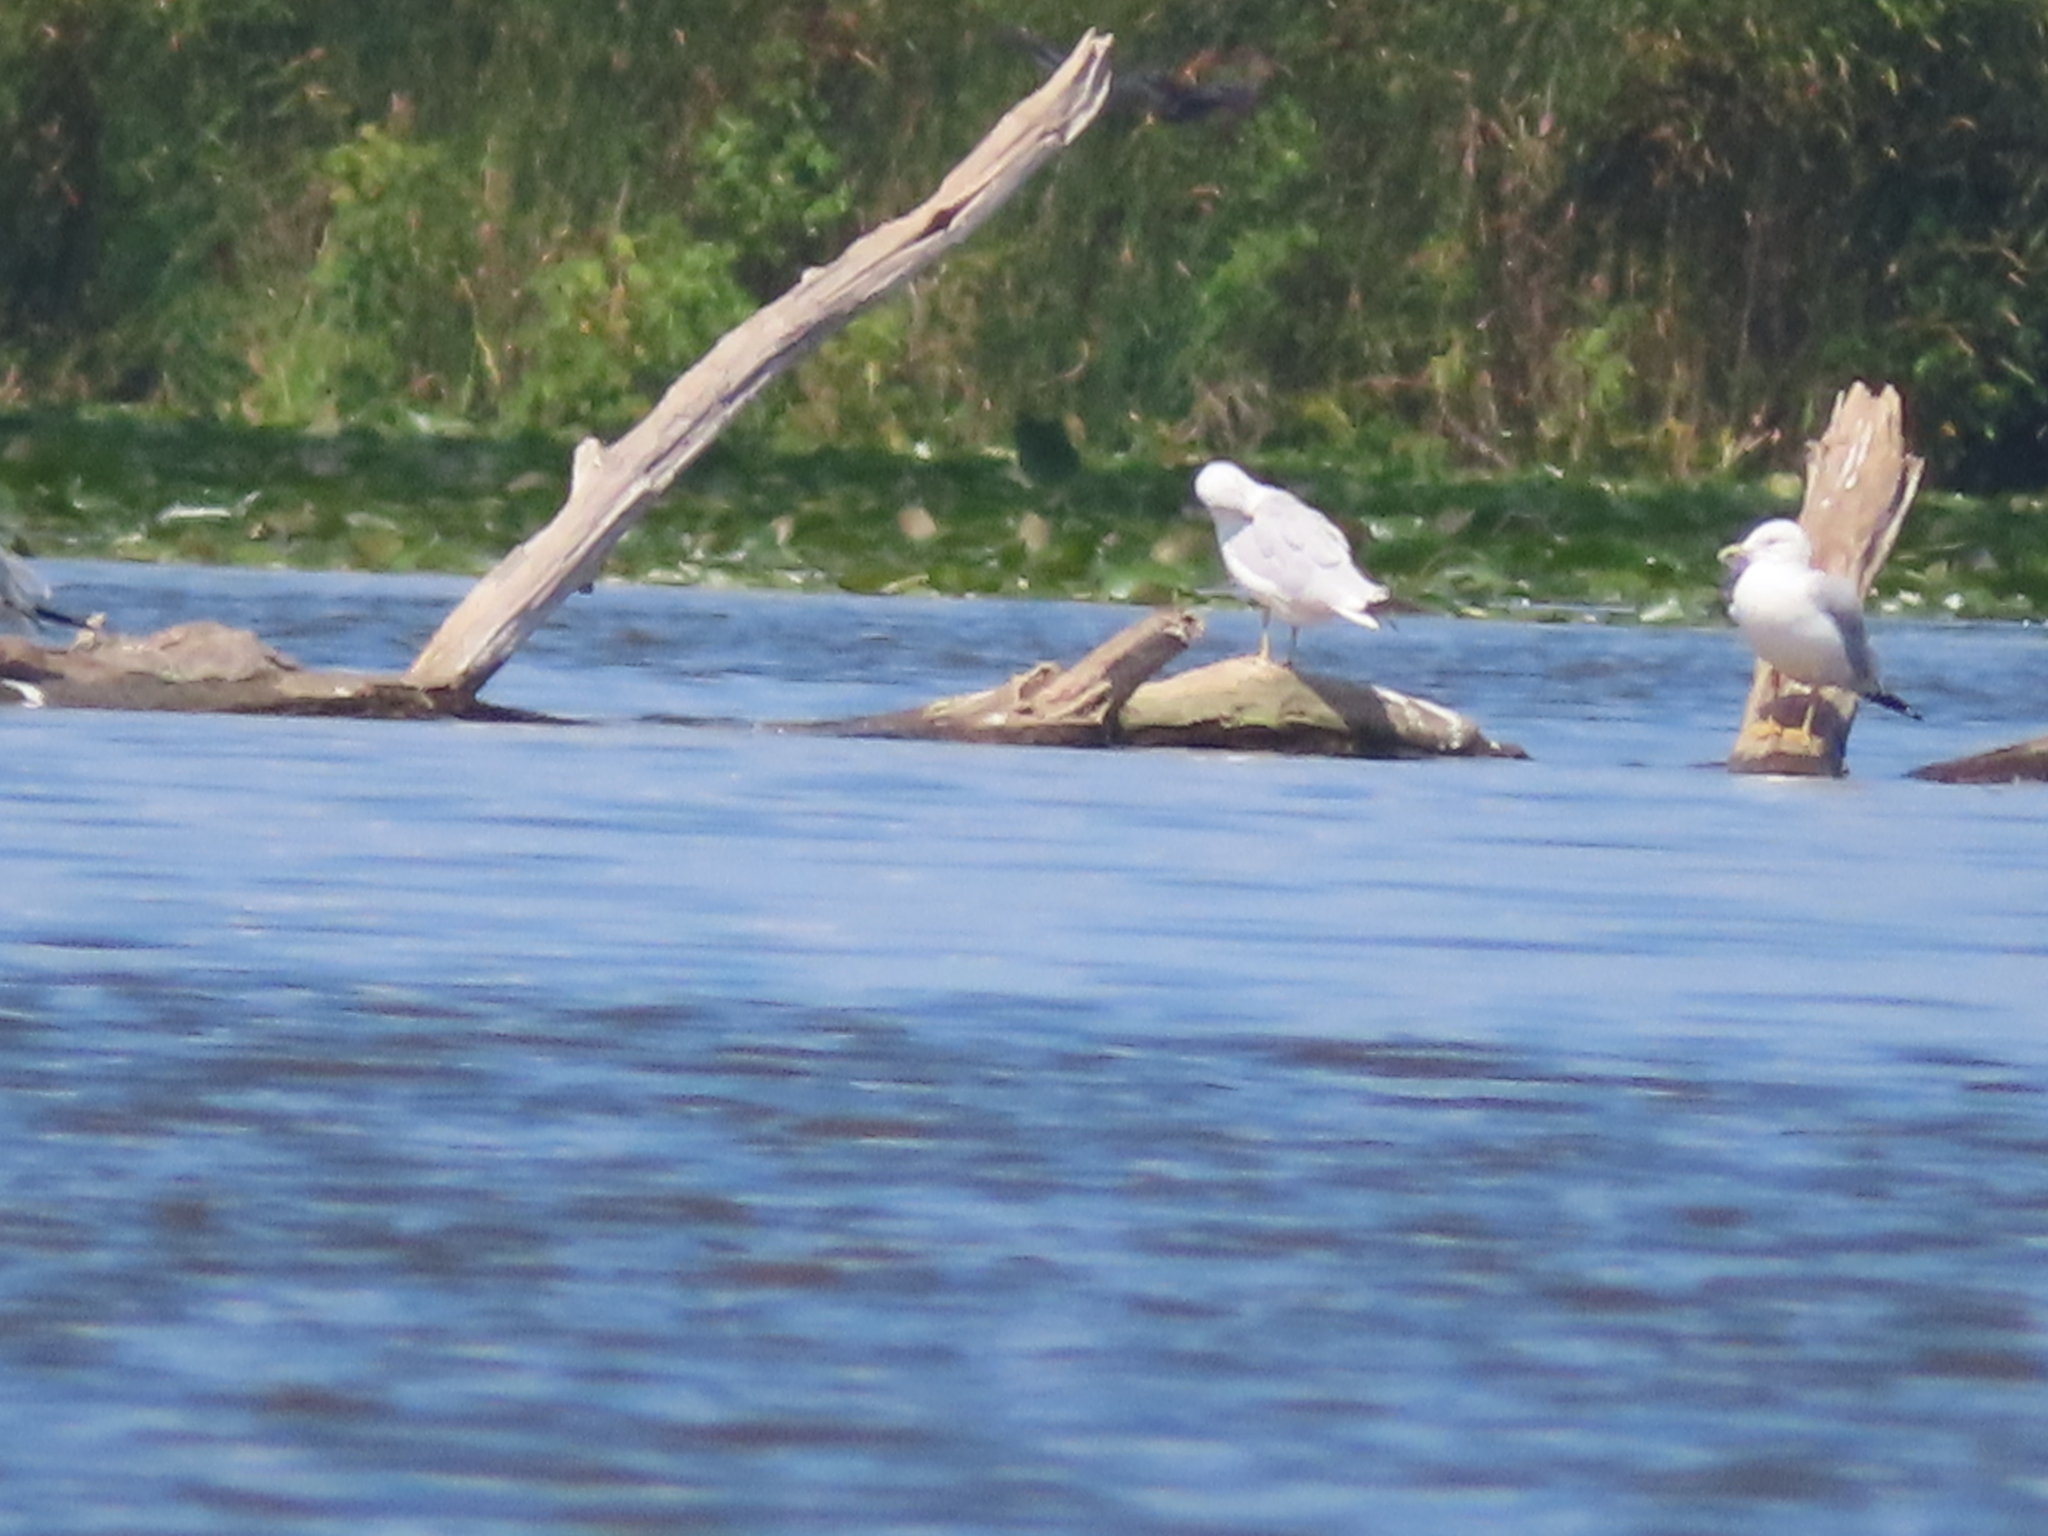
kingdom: Animalia
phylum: Chordata
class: Aves
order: Charadriiformes
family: Laridae
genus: Larus
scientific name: Larus delawarensis
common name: Ring-billed gull
